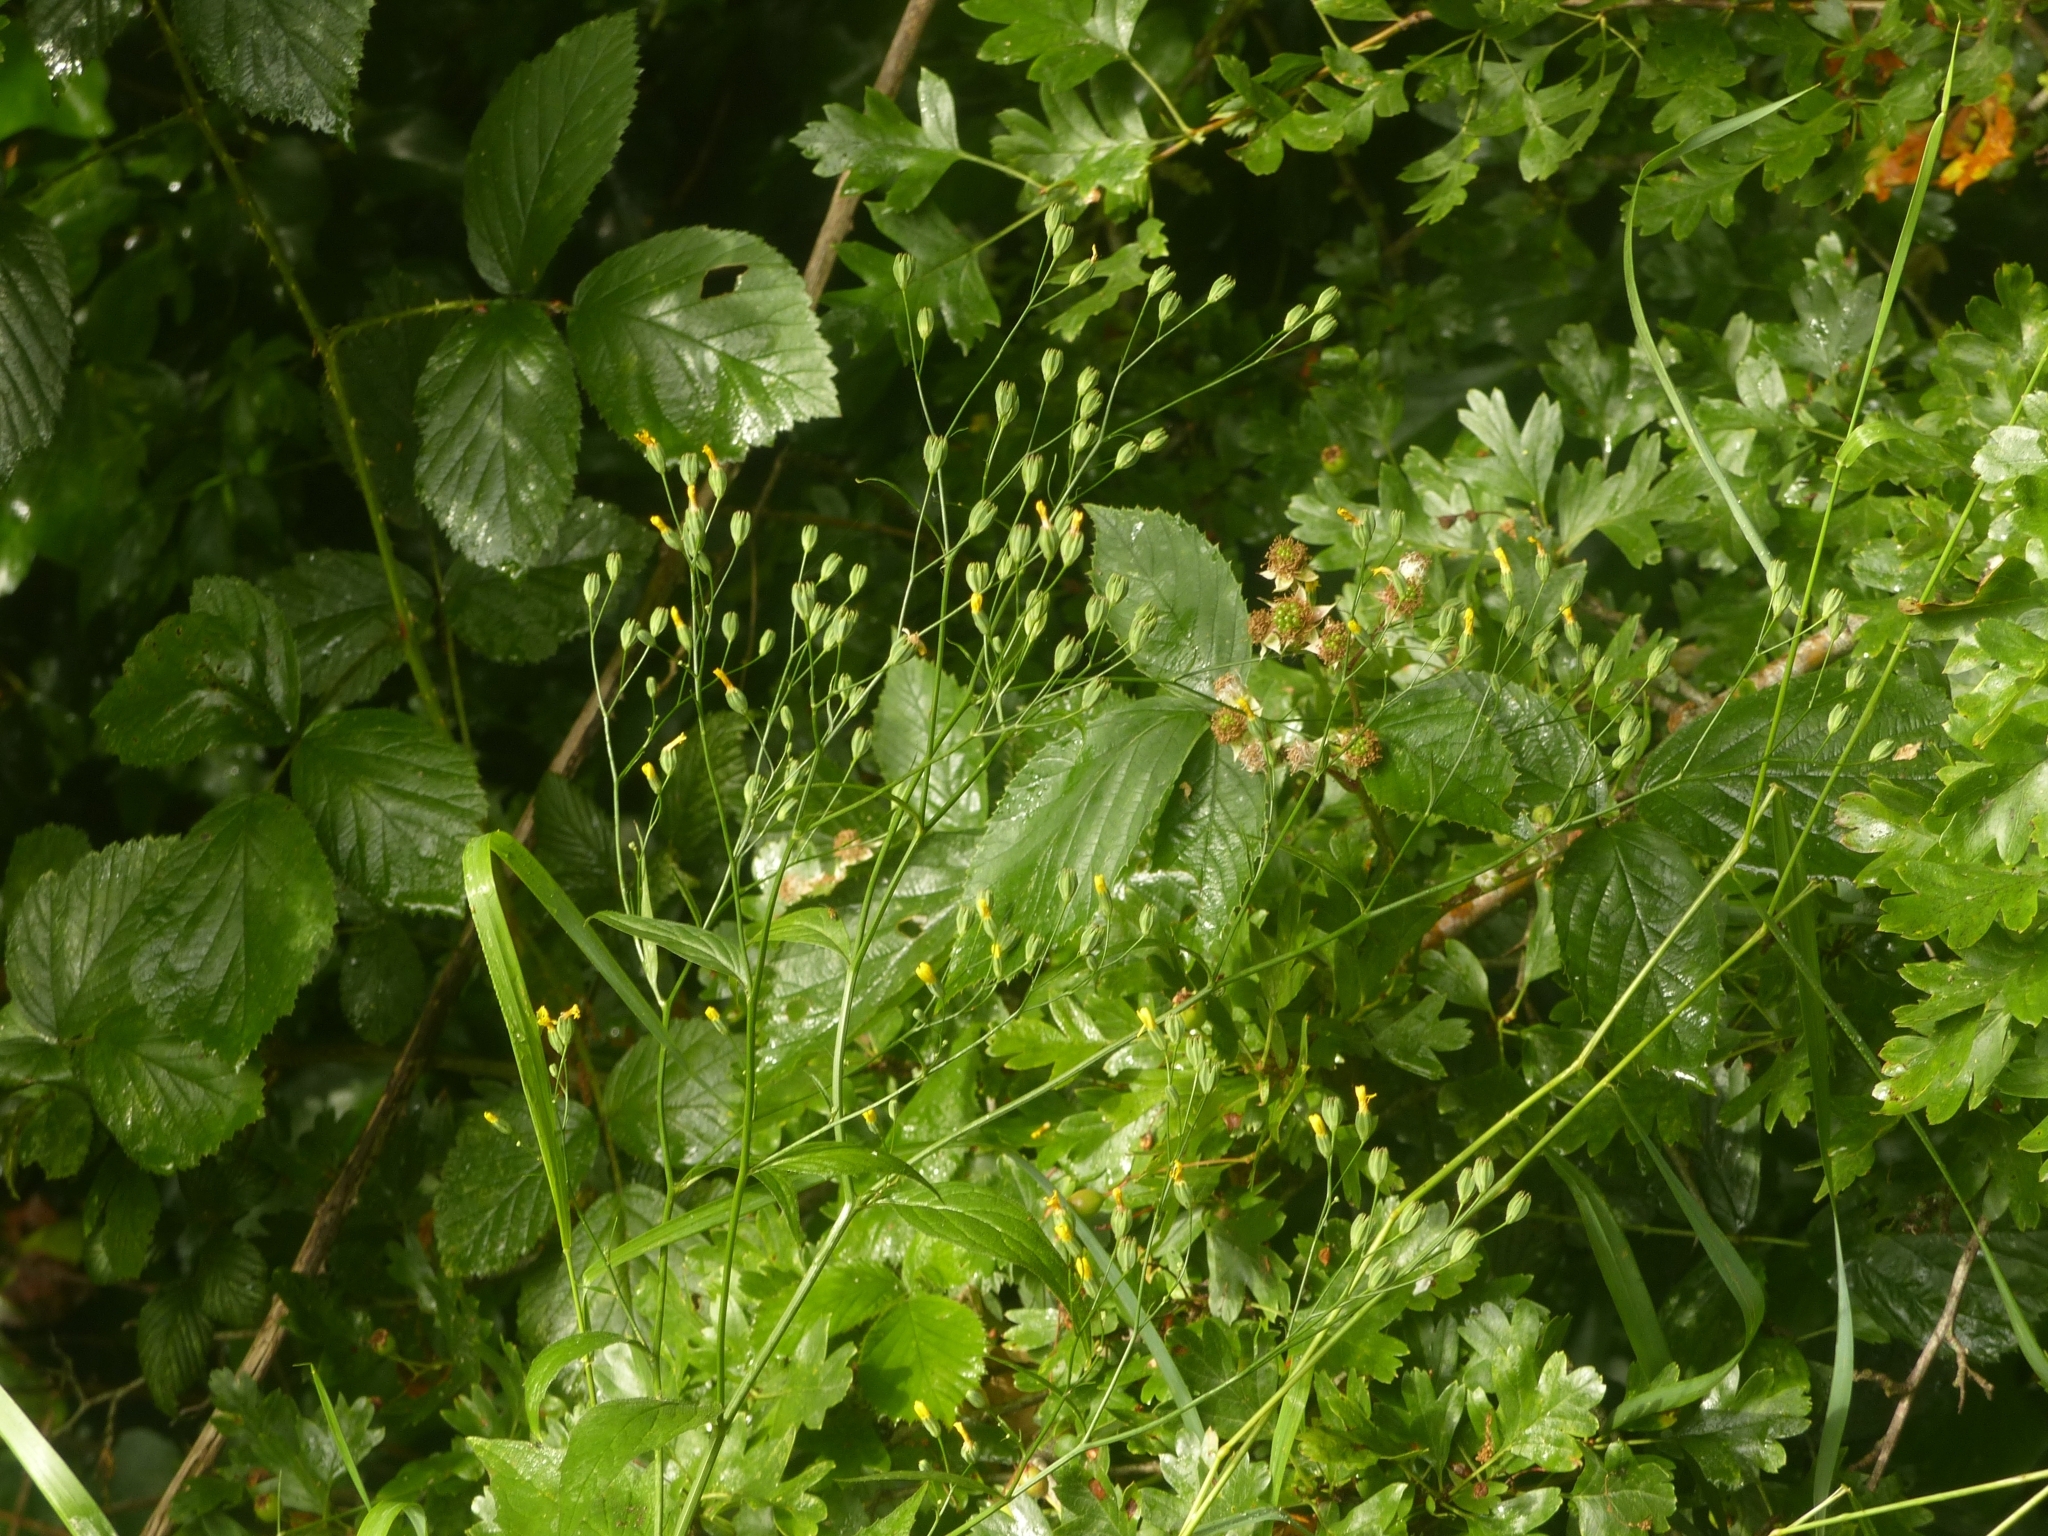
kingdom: Plantae
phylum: Tracheophyta
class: Magnoliopsida
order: Asterales
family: Asteraceae
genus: Lapsana
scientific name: Lapsana communis
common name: Nipplewort
